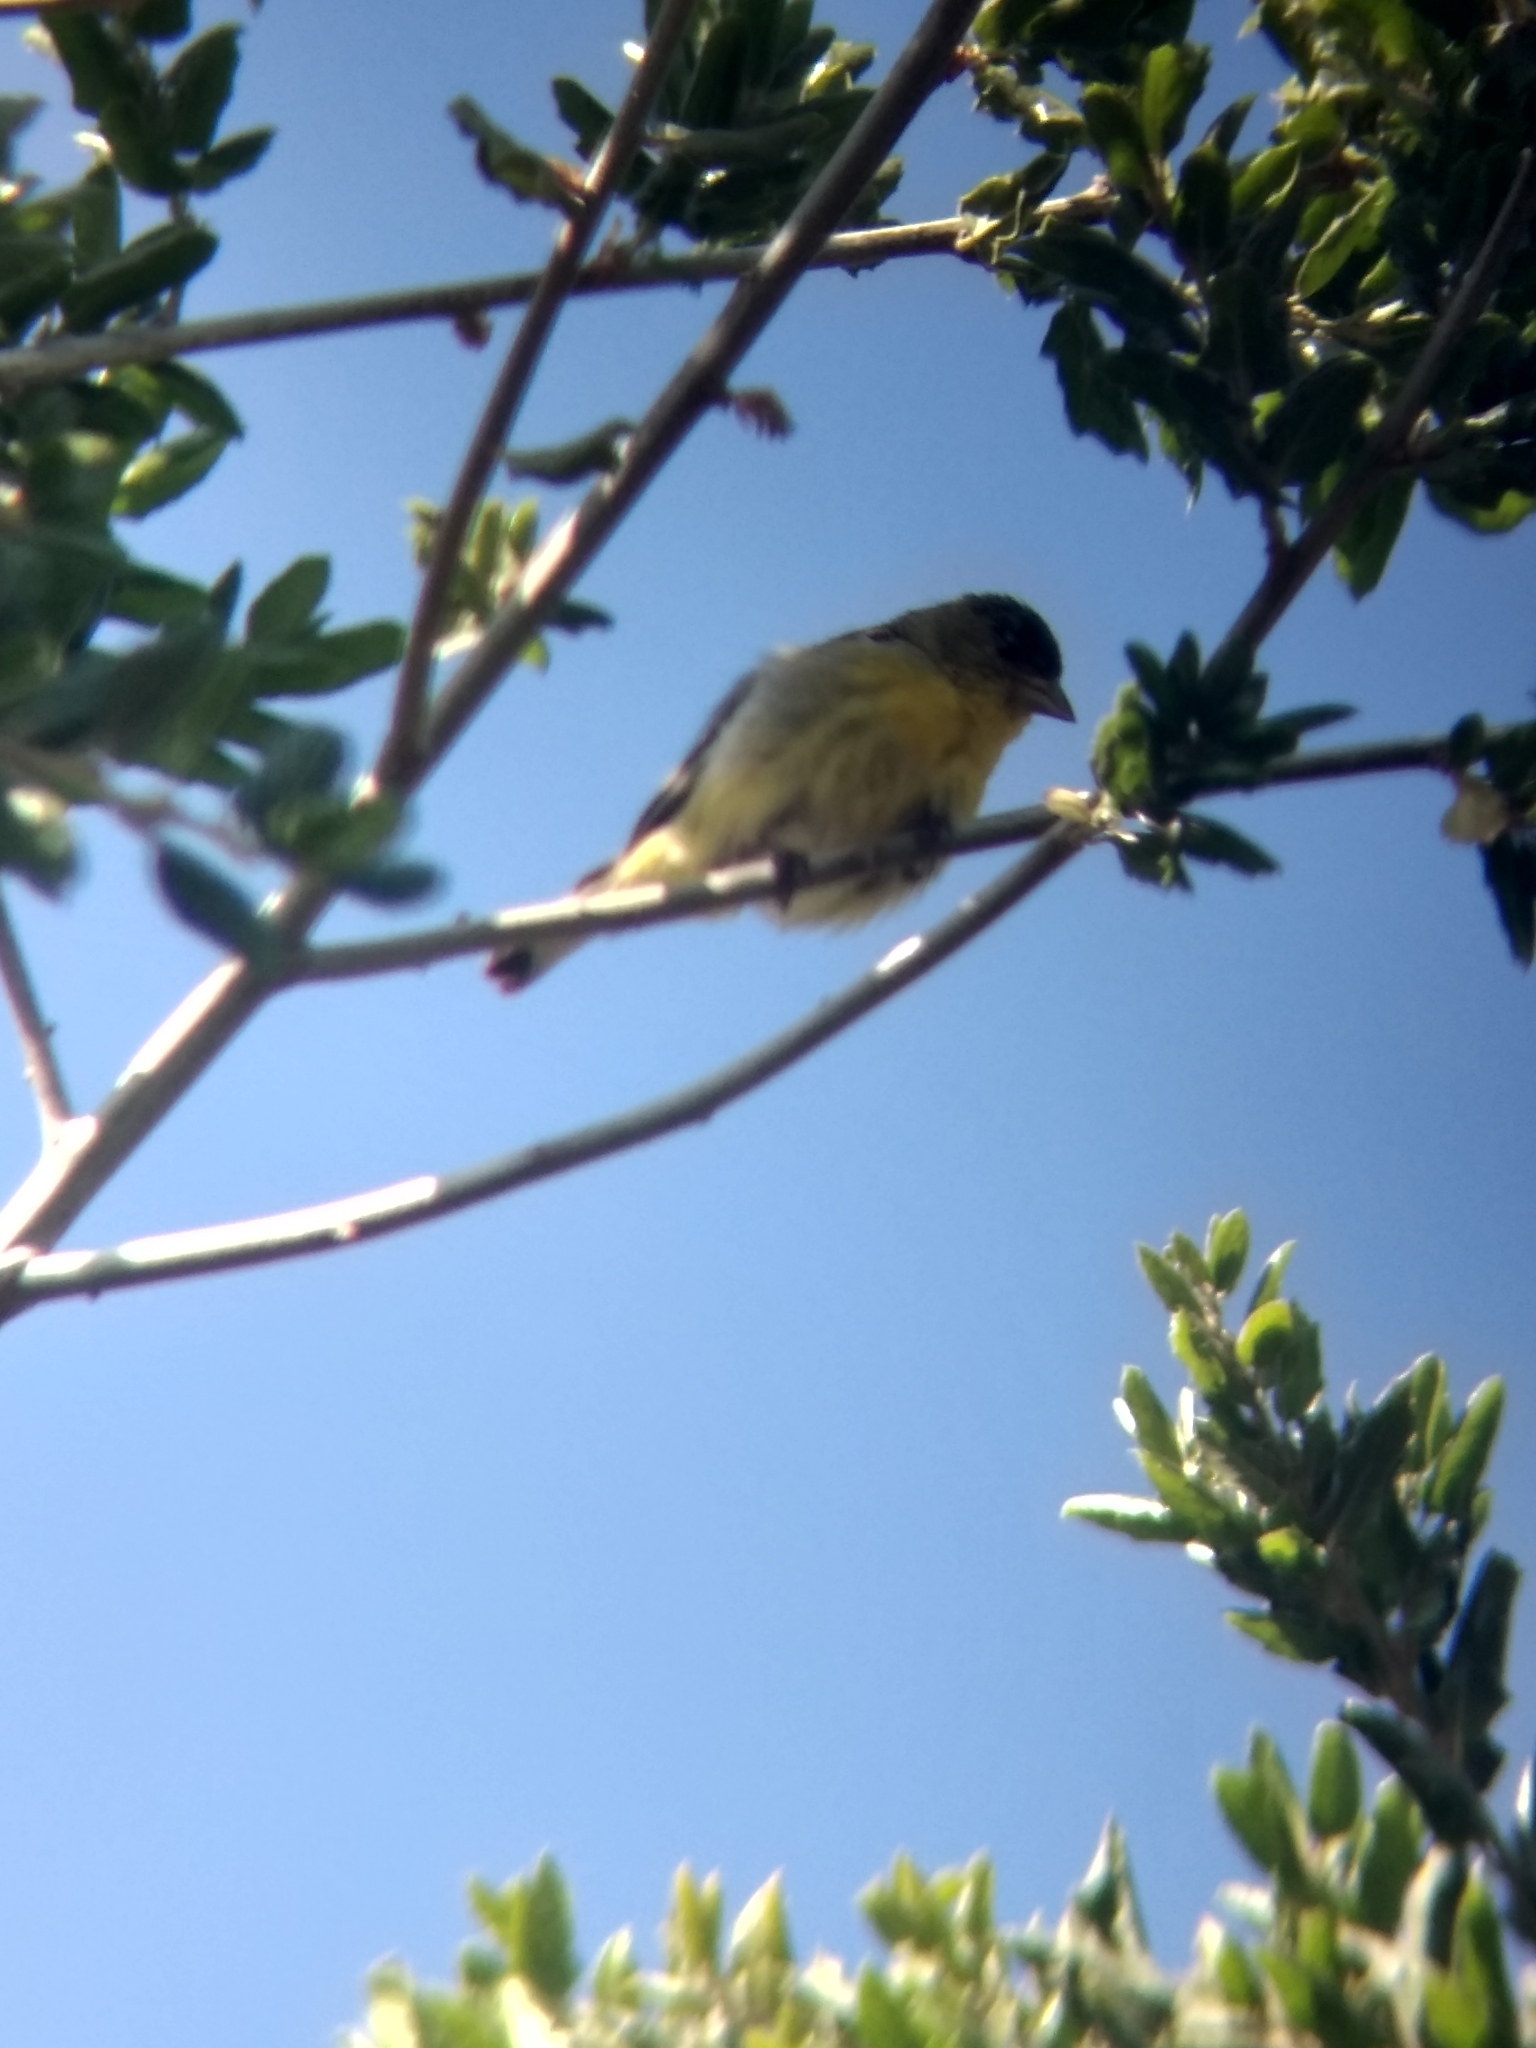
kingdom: Animalia
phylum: Chordata
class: Aves
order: Passeriformes
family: Fringillidae
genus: Spinus
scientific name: Spinus psaltria
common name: Lesser goldfinch
